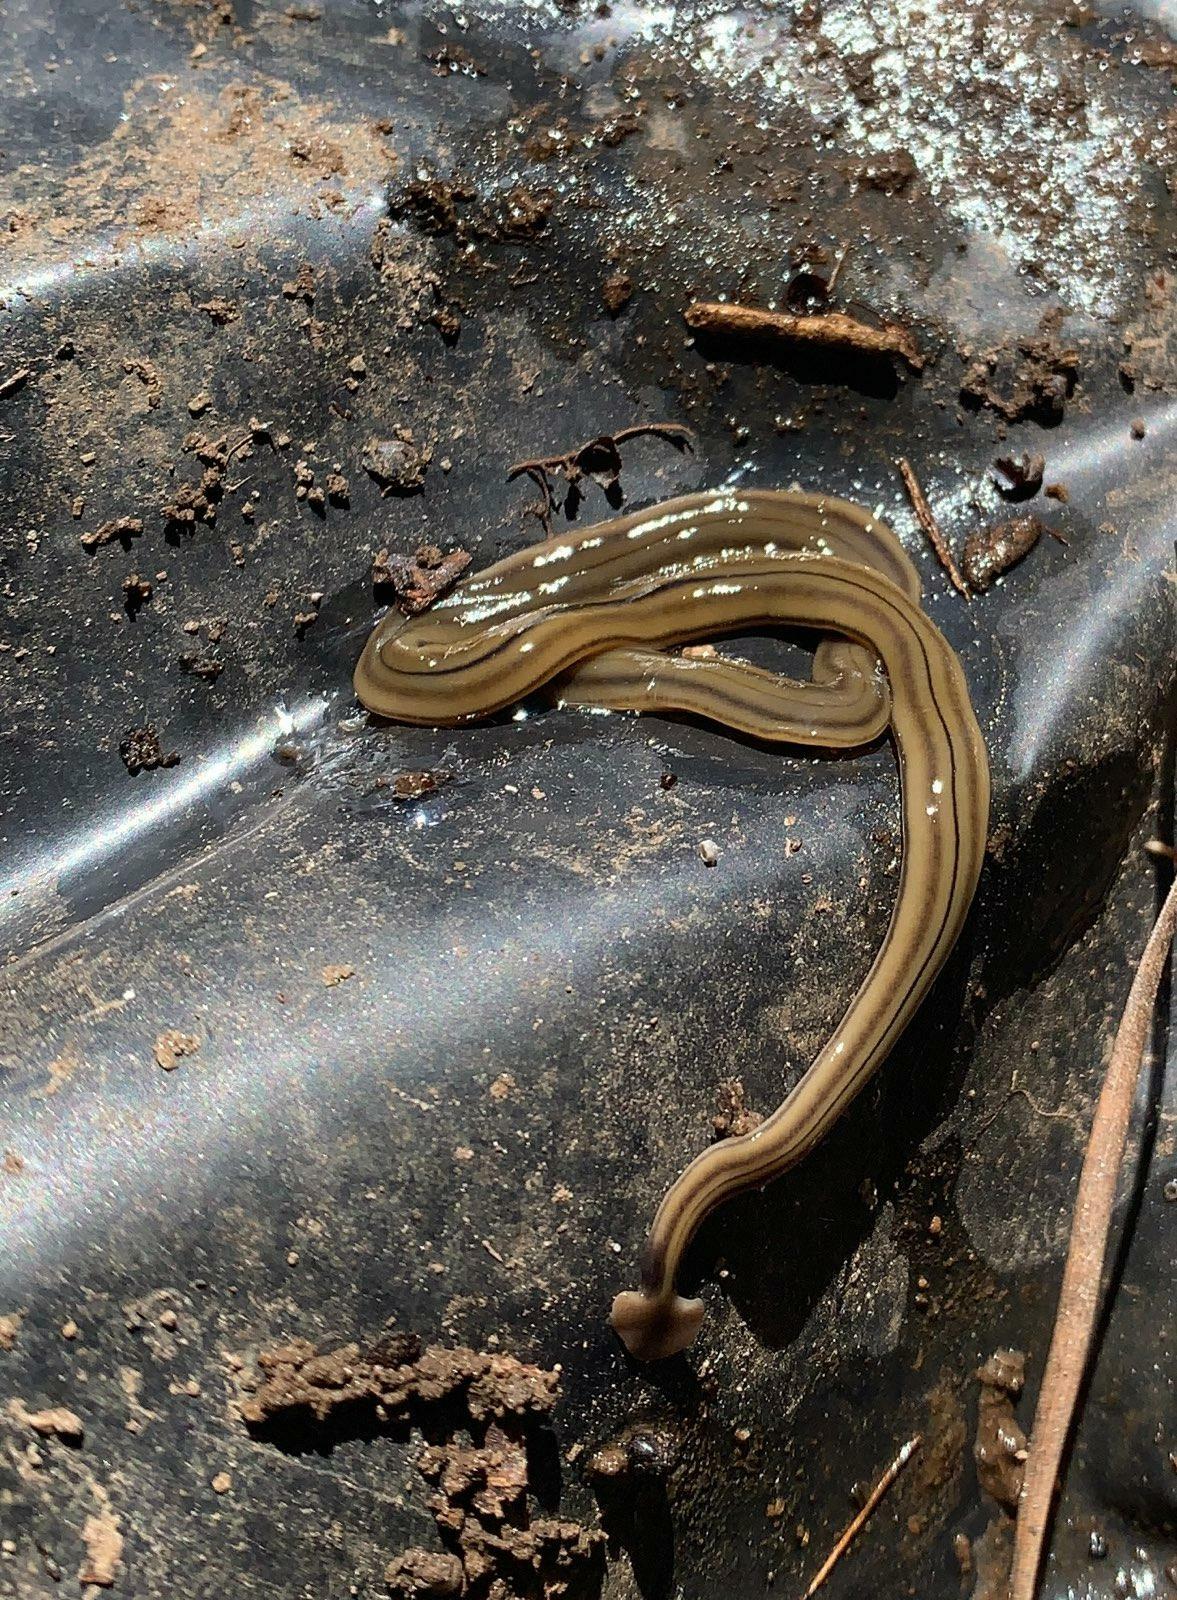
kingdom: Animalia
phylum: Platyhelminthes
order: Tricladida
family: Geoplanidae
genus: Bipalium
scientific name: Bipalium kewense
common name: Hammerhead flatworm
